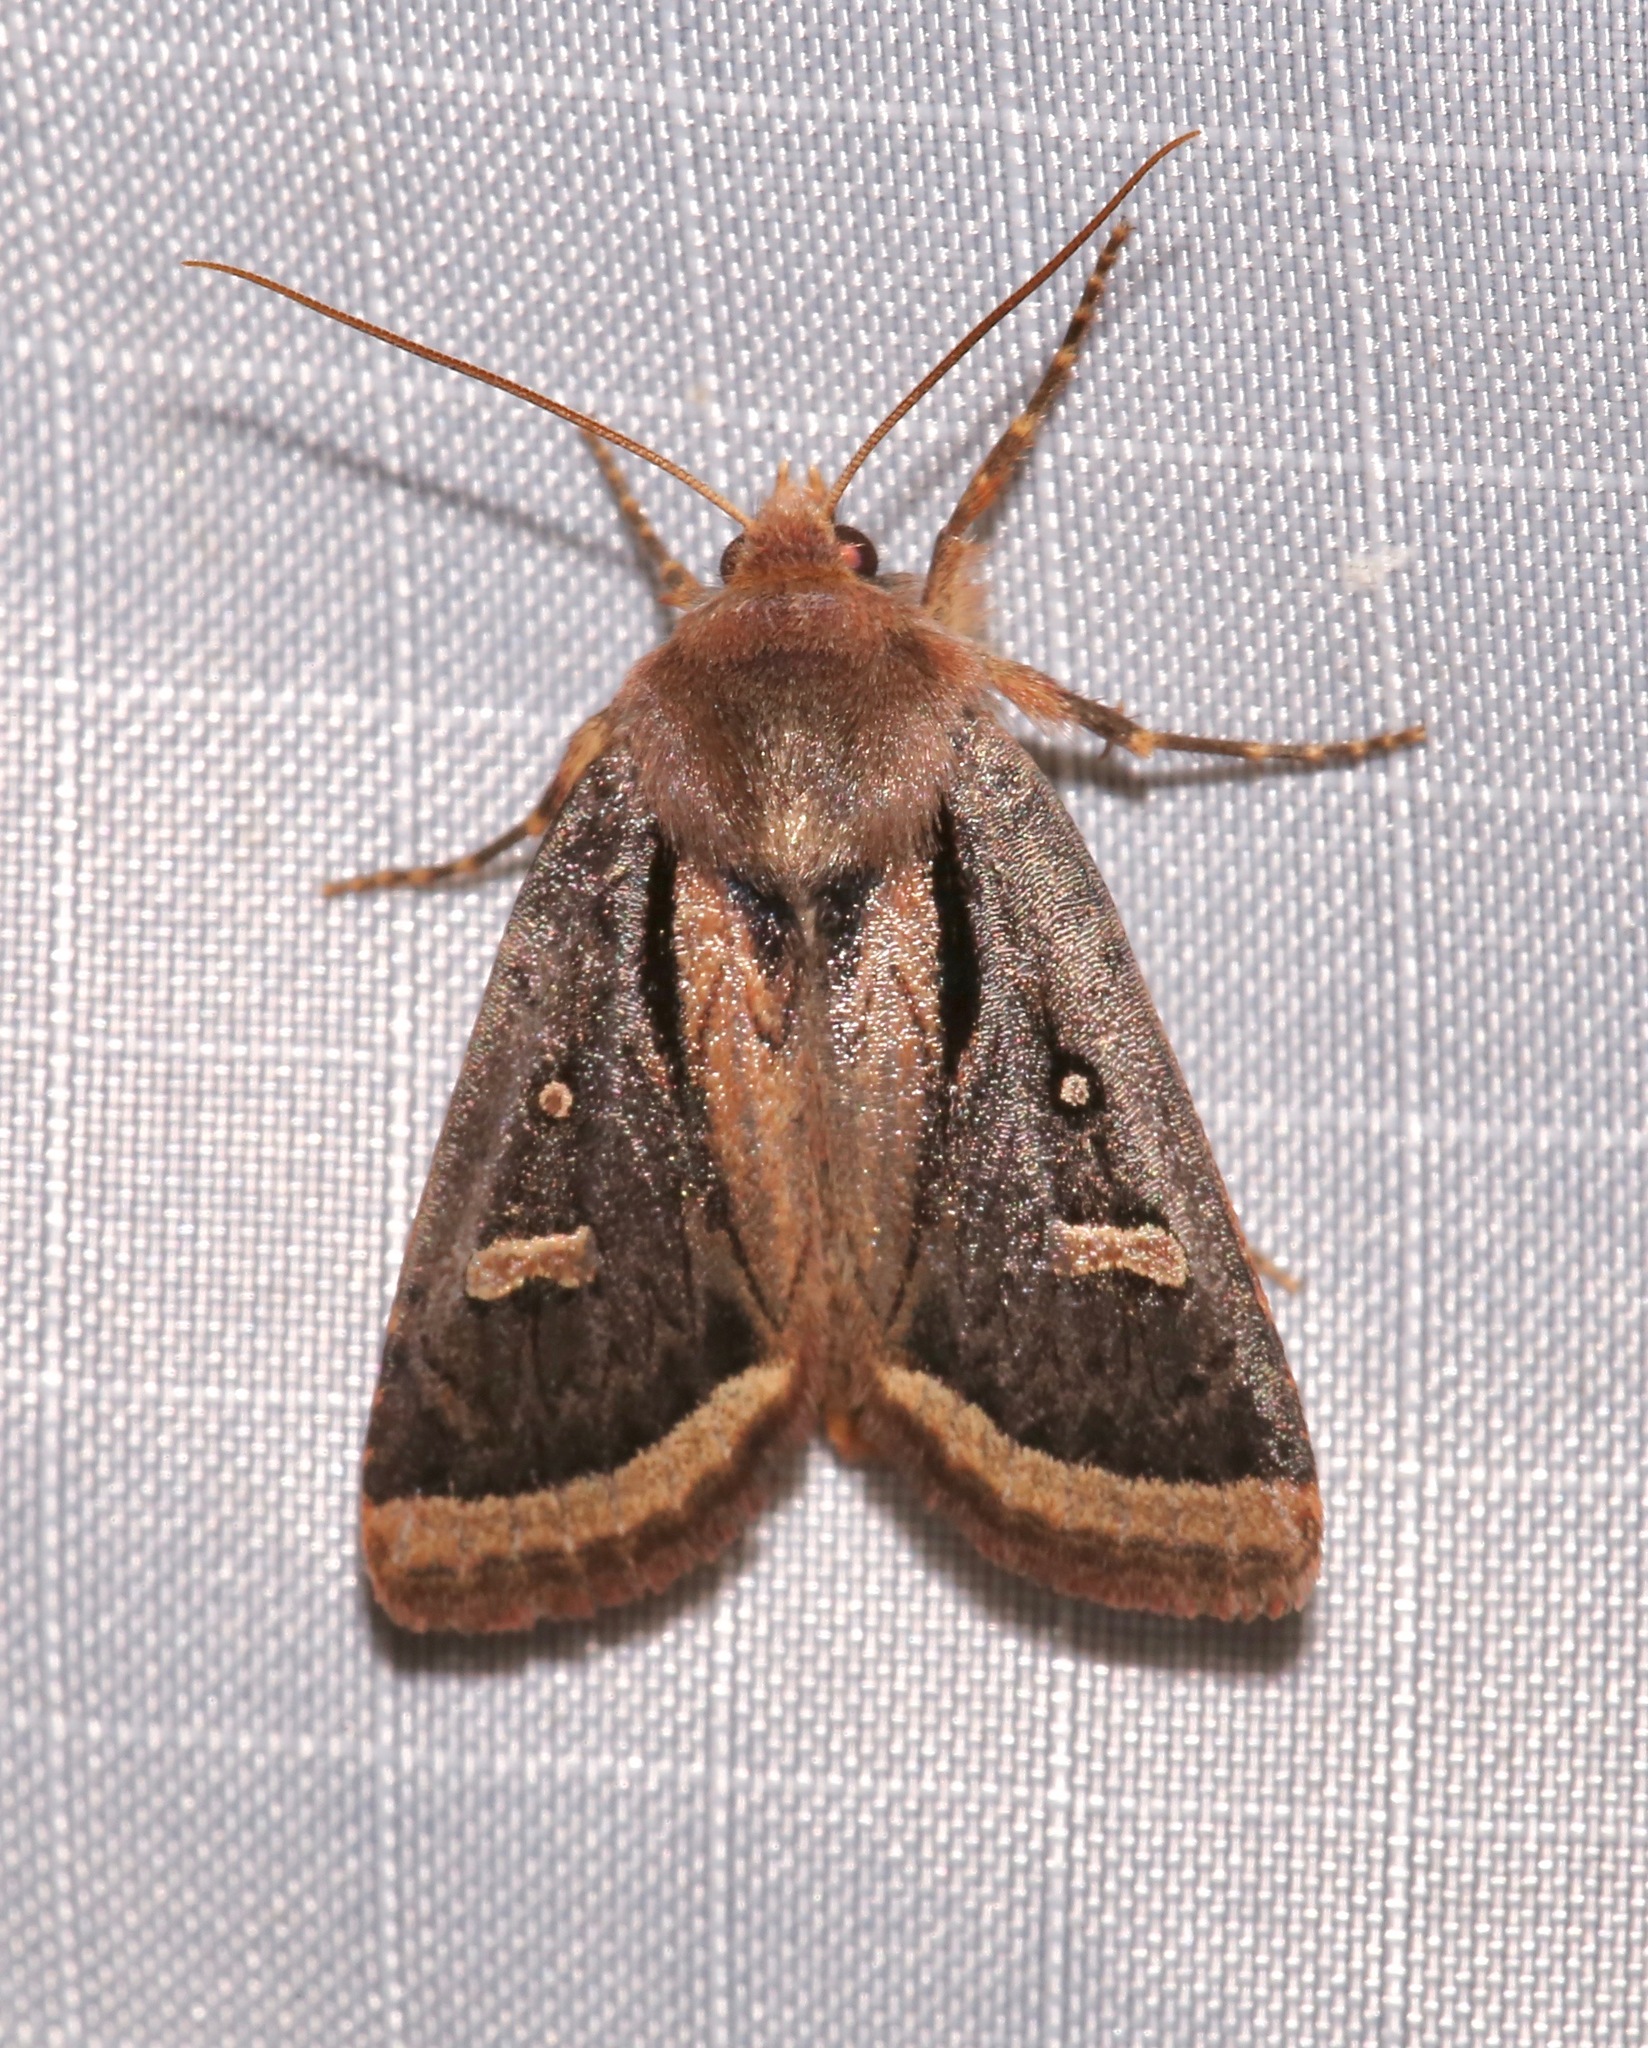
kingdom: Animalia
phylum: Arthropoda
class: Insecta
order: Lepidoptera
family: Noctuidae
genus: Trichofeltia
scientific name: Trichofeltia circumdata
